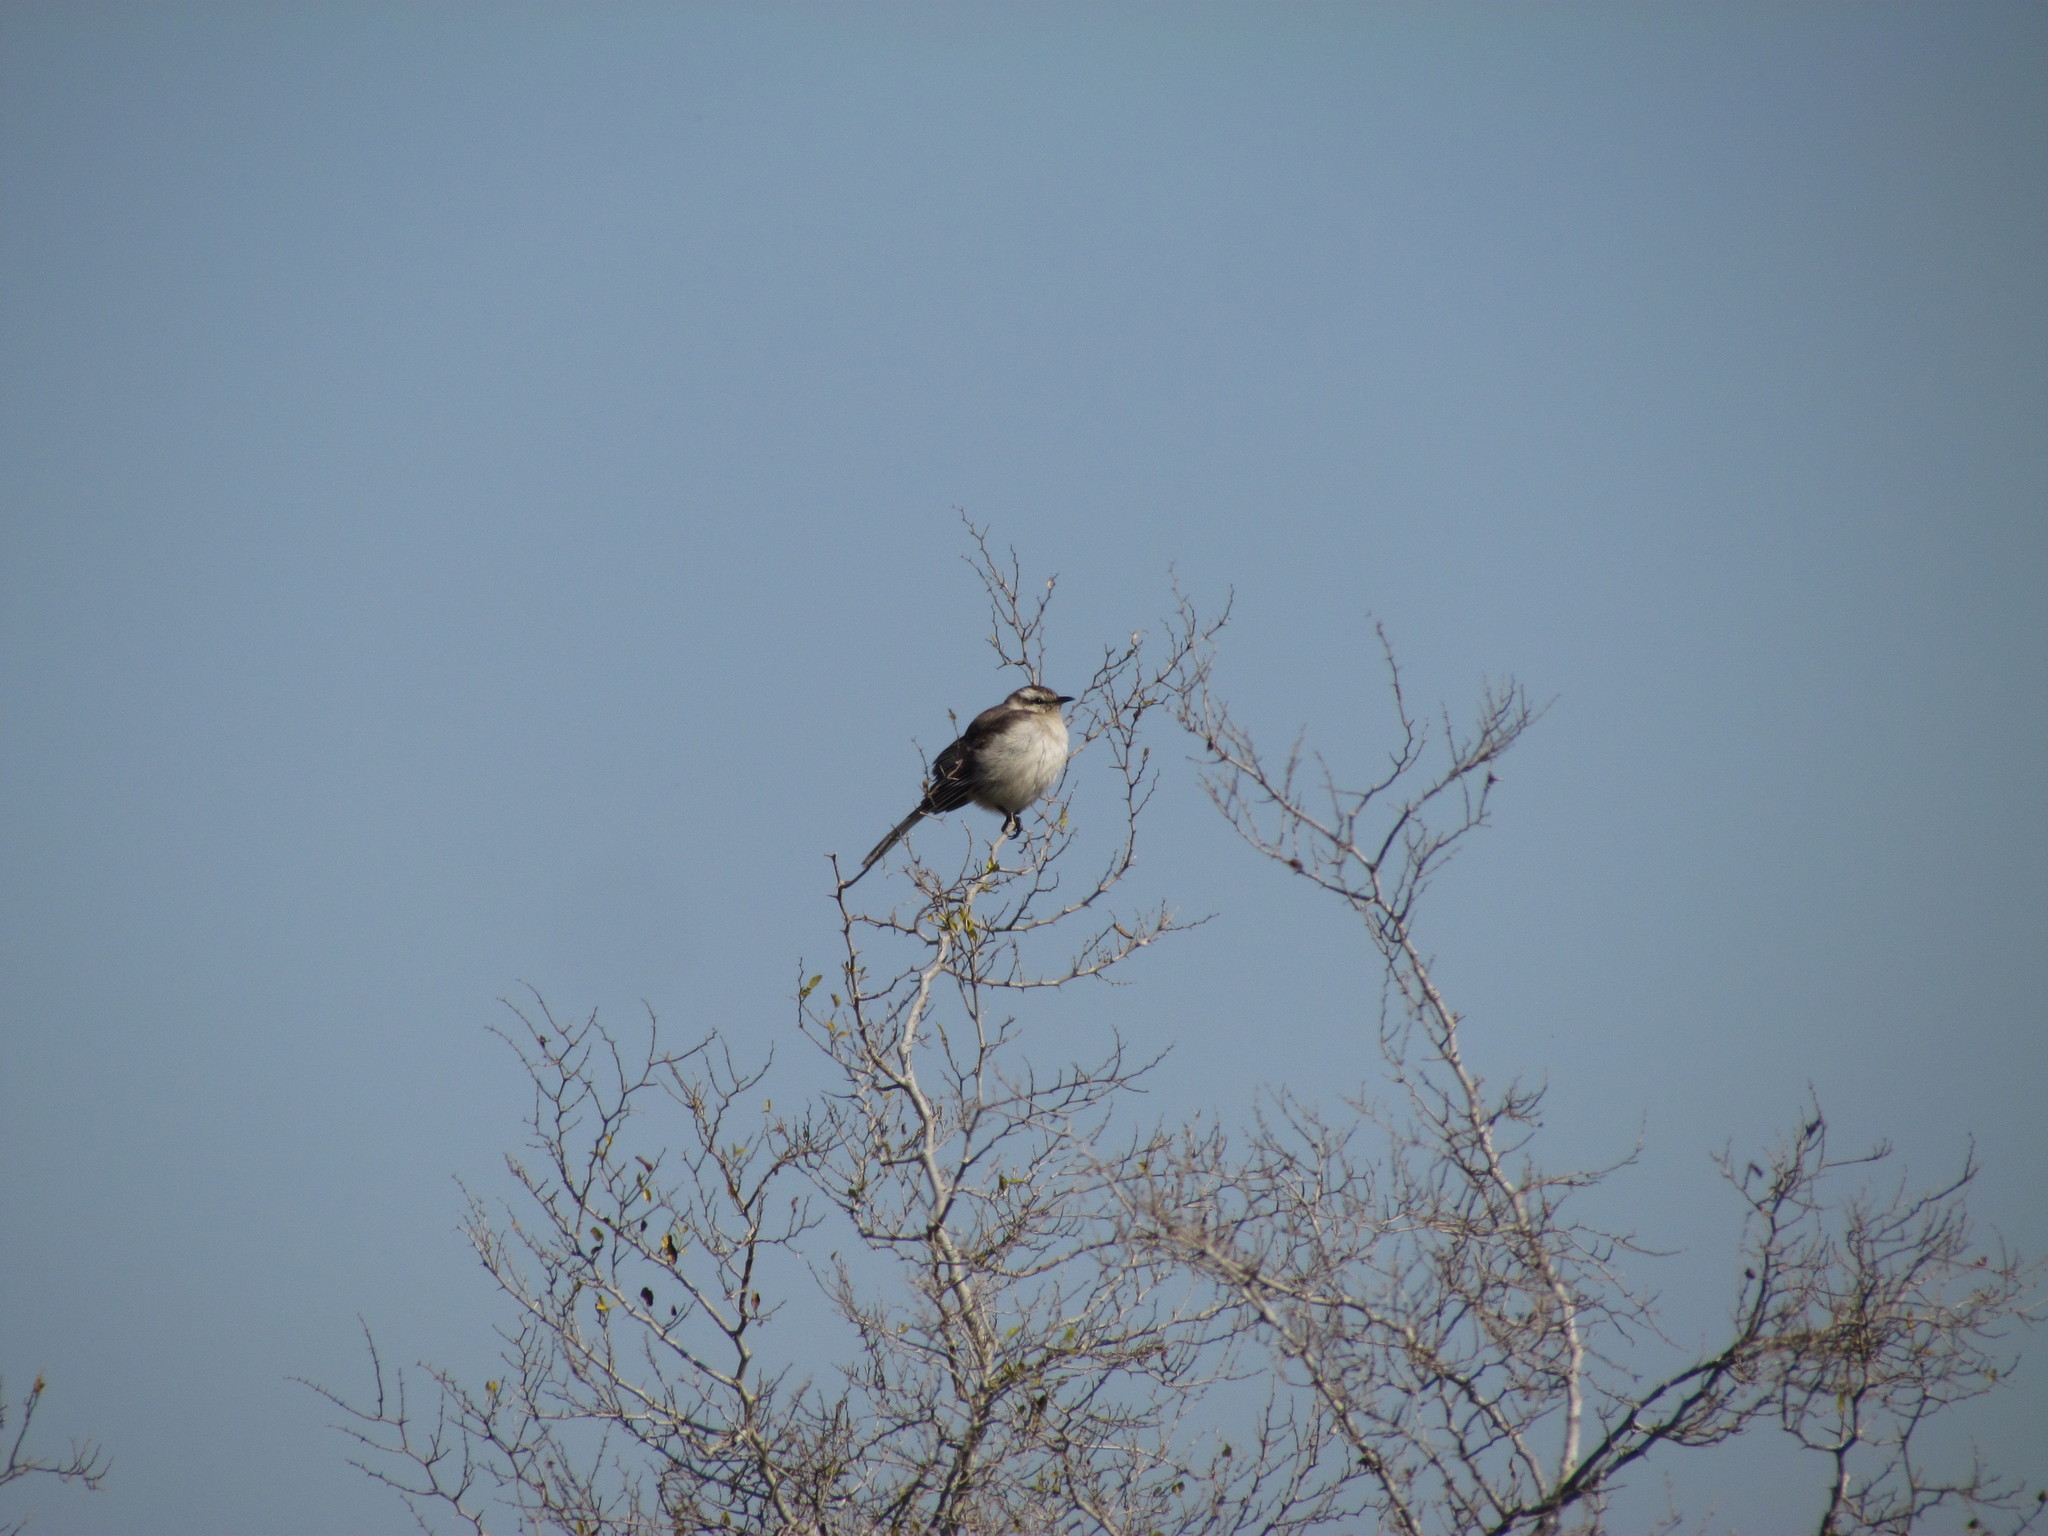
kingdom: Animalia
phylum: Chordata
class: Aves
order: Passeriformes
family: Mimidae
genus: Mimus
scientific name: Mimus saturninus
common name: Chalk-browed mockingbird
